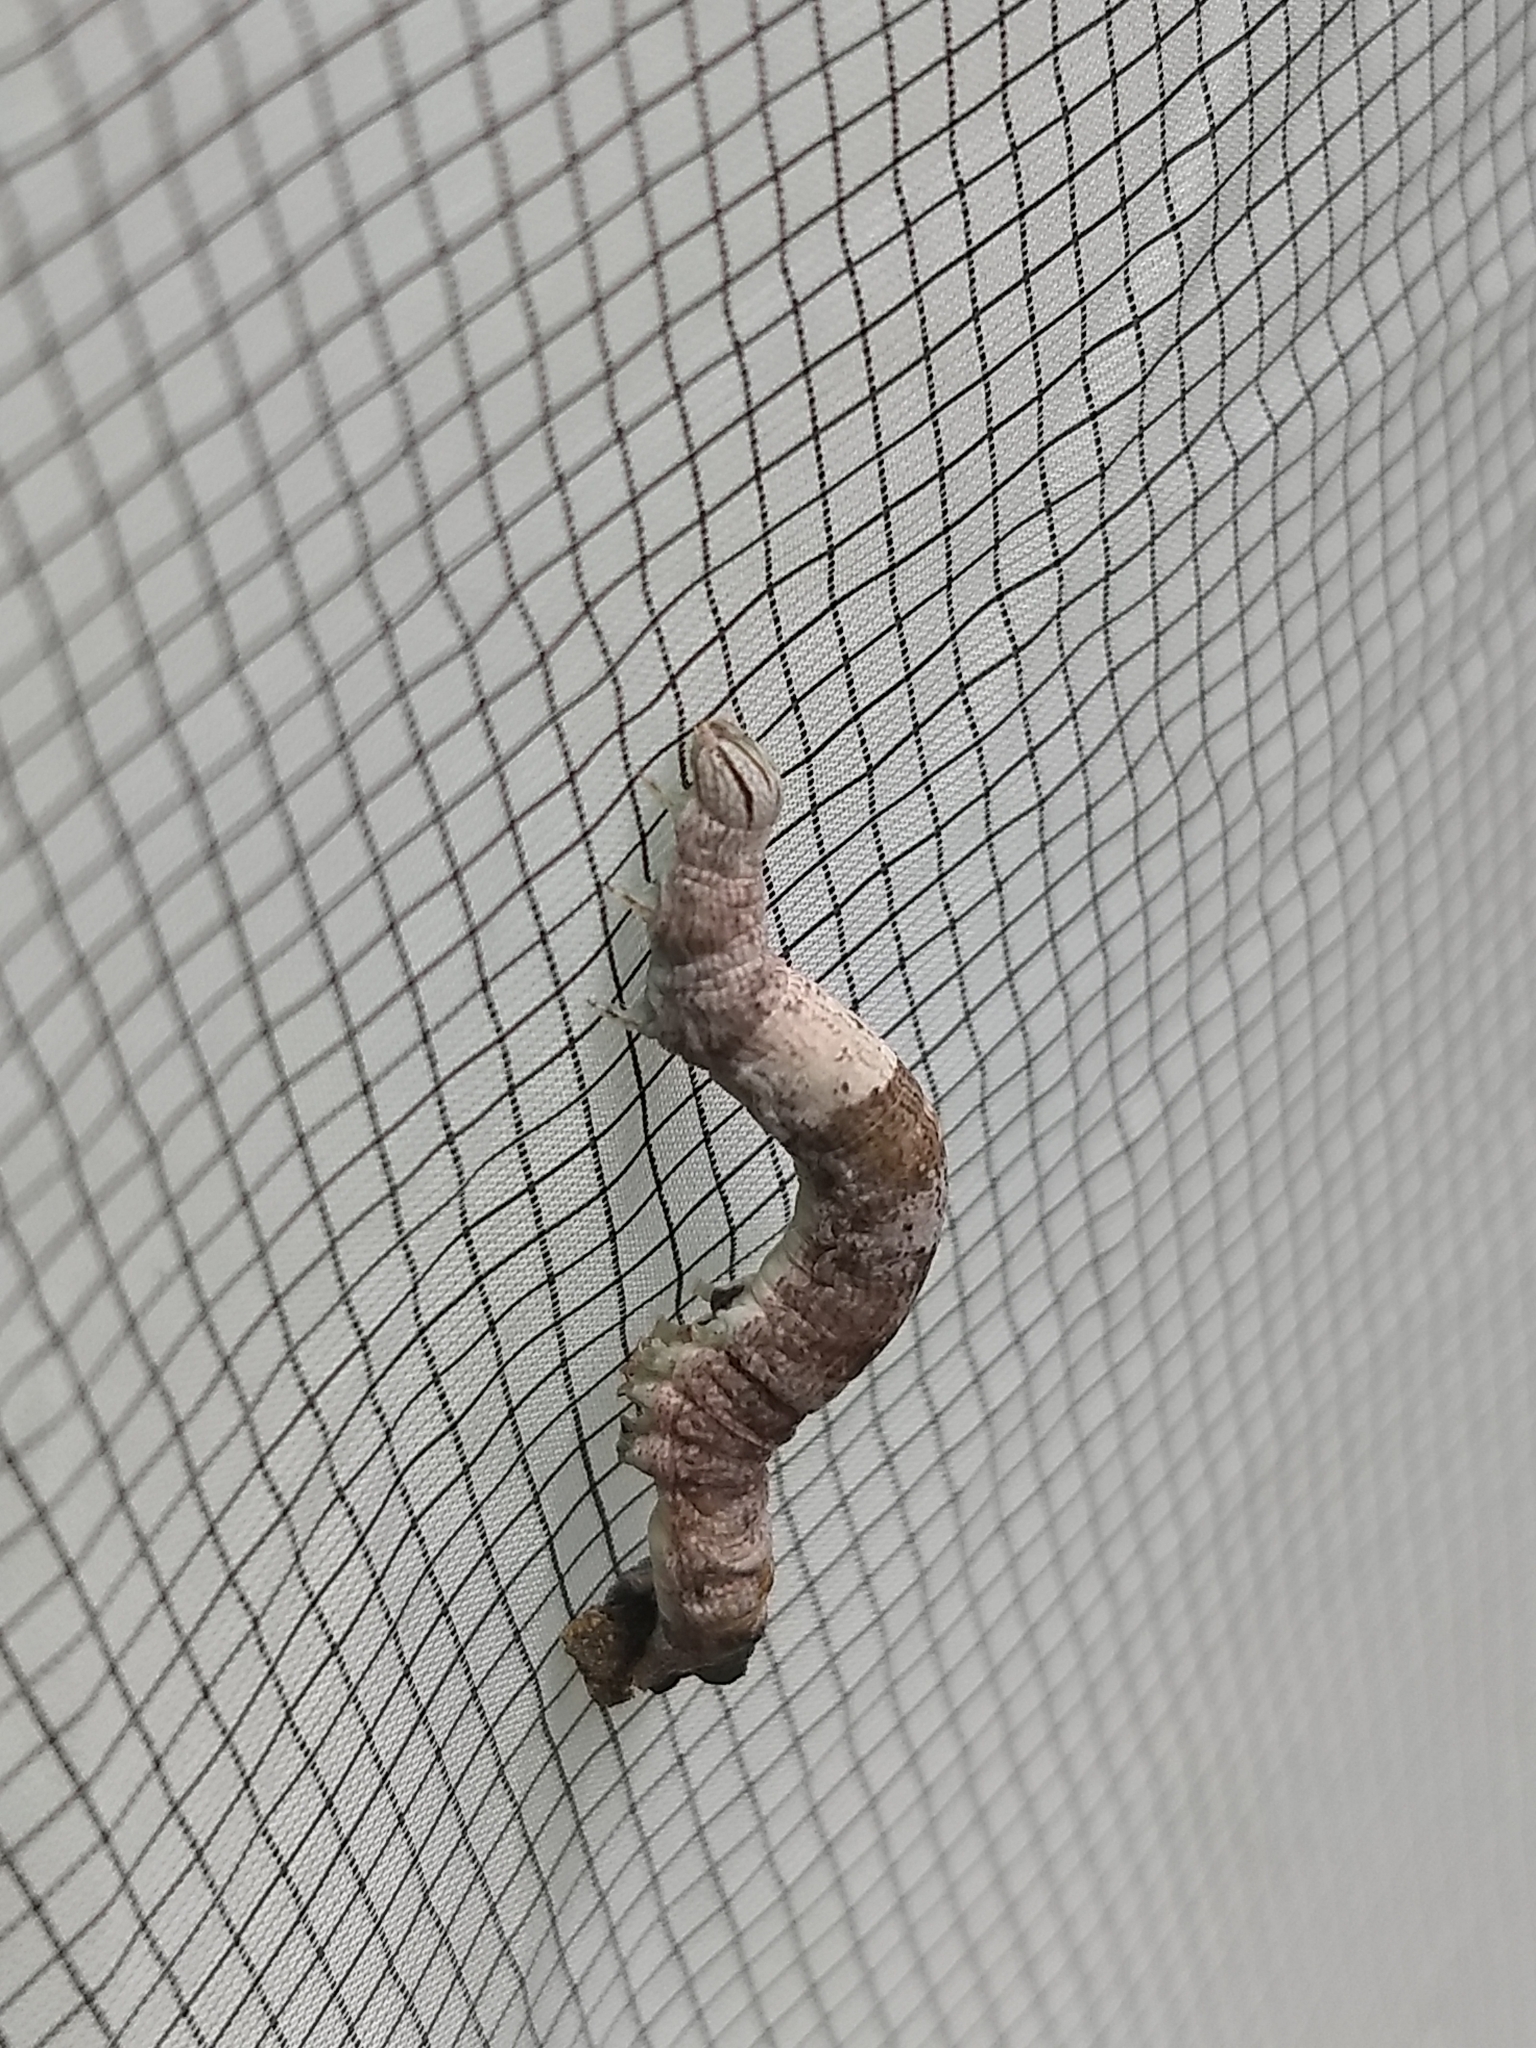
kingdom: Animalia
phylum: Arthropoda
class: Insecta
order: Lepidoptera
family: Erebidae
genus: Parallelia
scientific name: Parallelia bistriaris
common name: Maple looper moth
